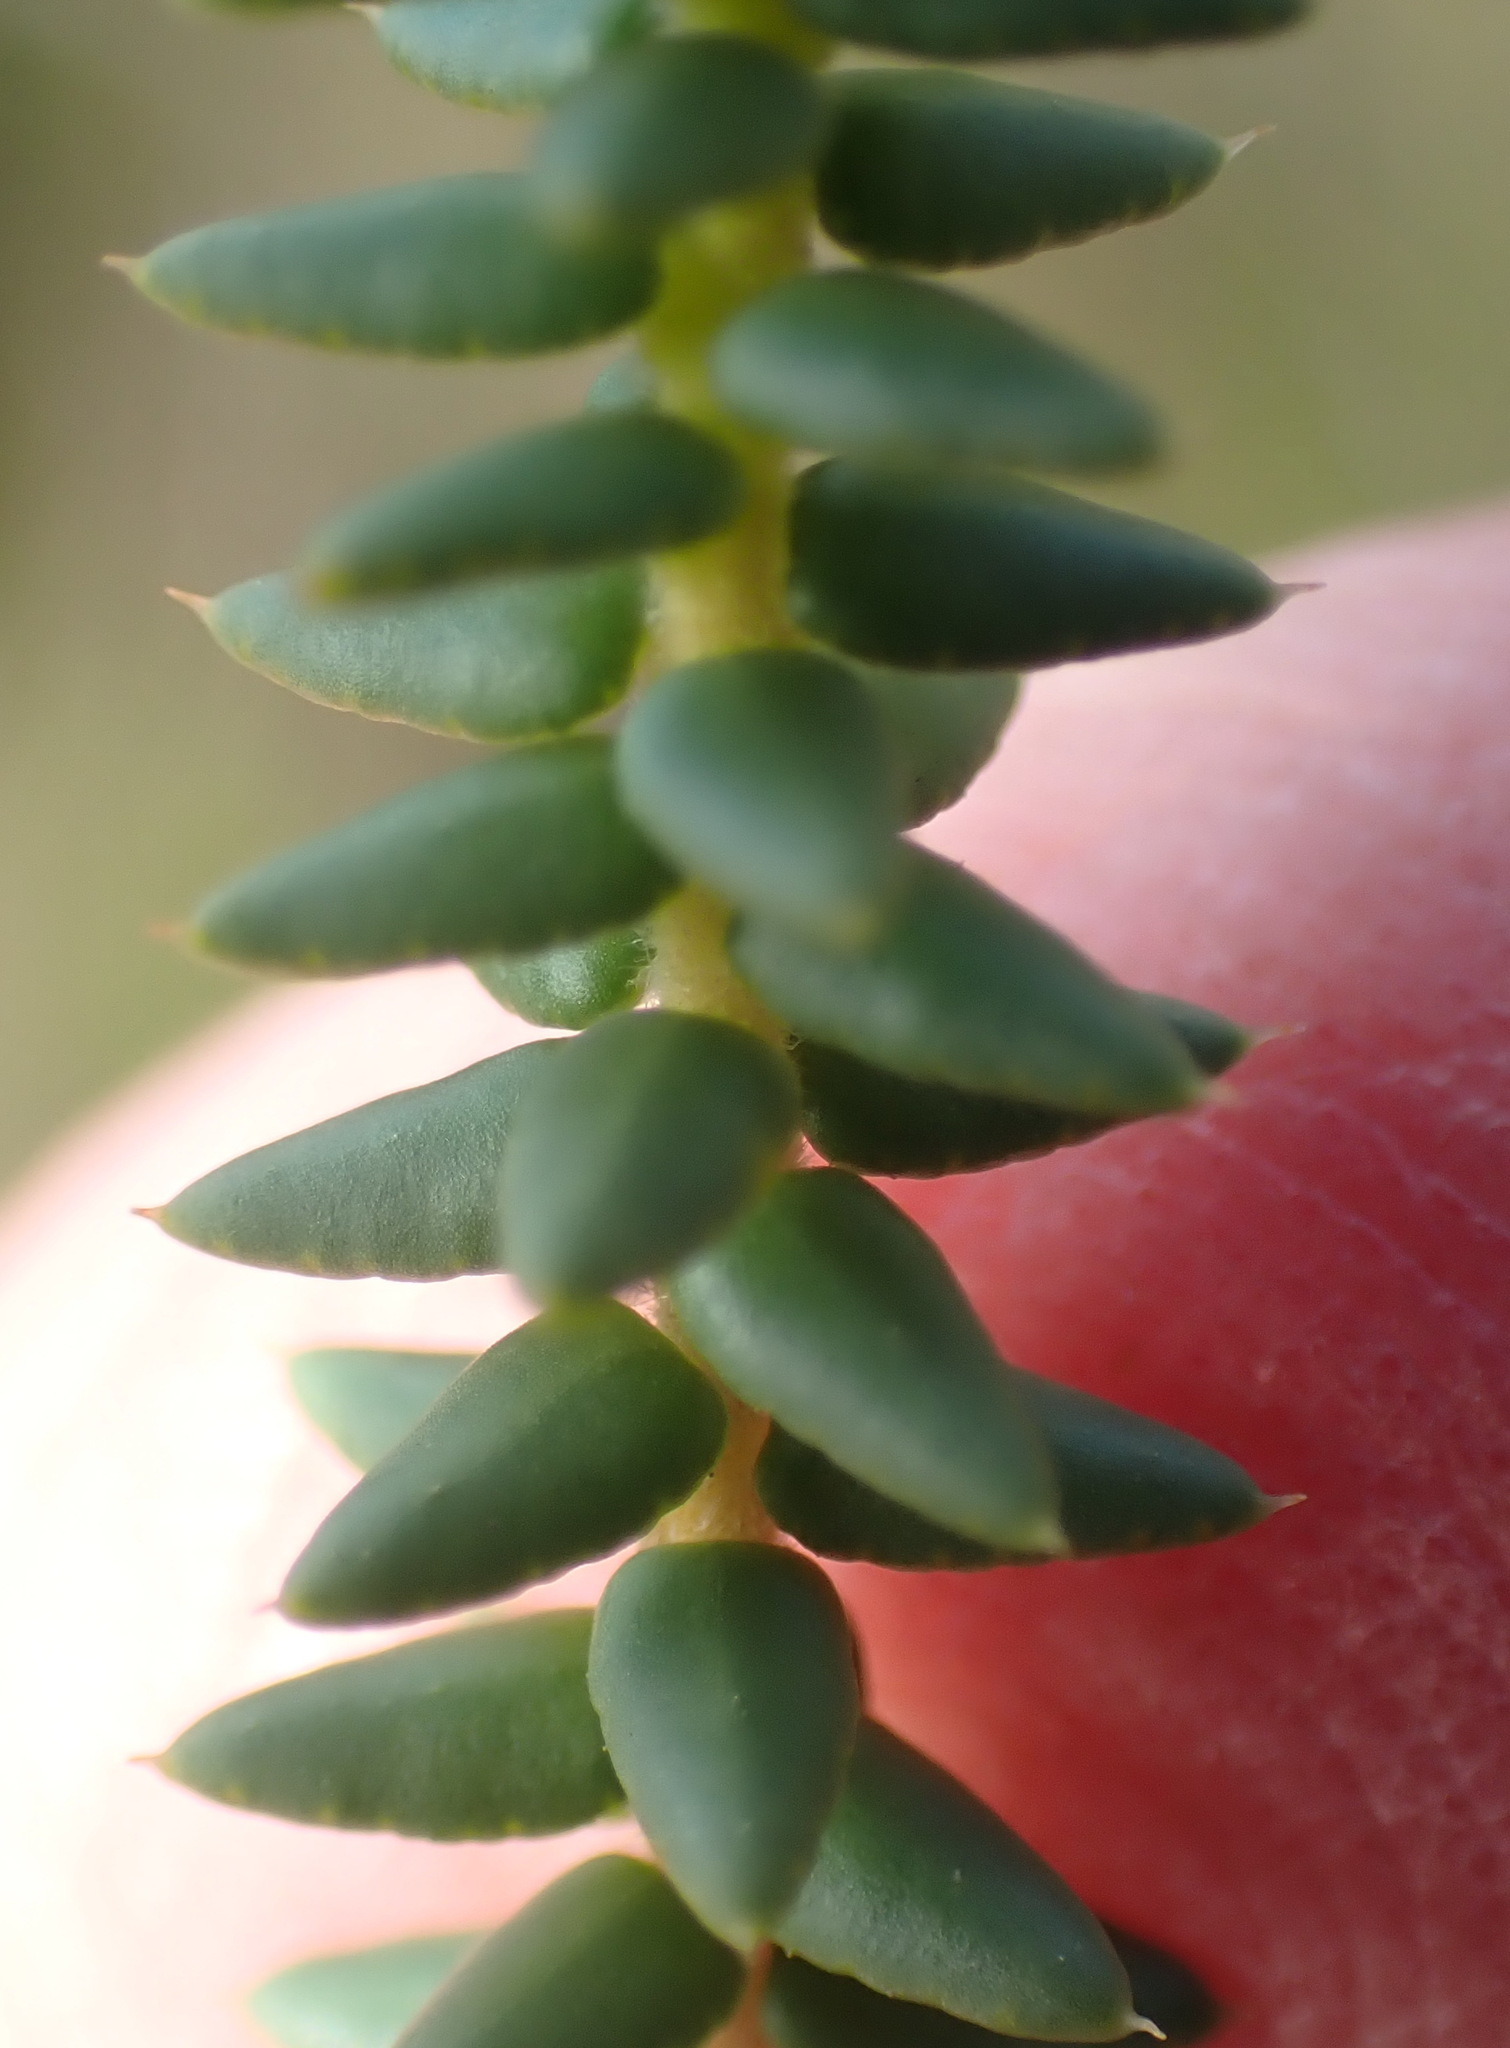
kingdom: Plantae
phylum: Tracheophyta
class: Magnoliopsida
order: Sapindales
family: Rutaceae
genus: Agathosma
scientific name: Agathosma apiculata
